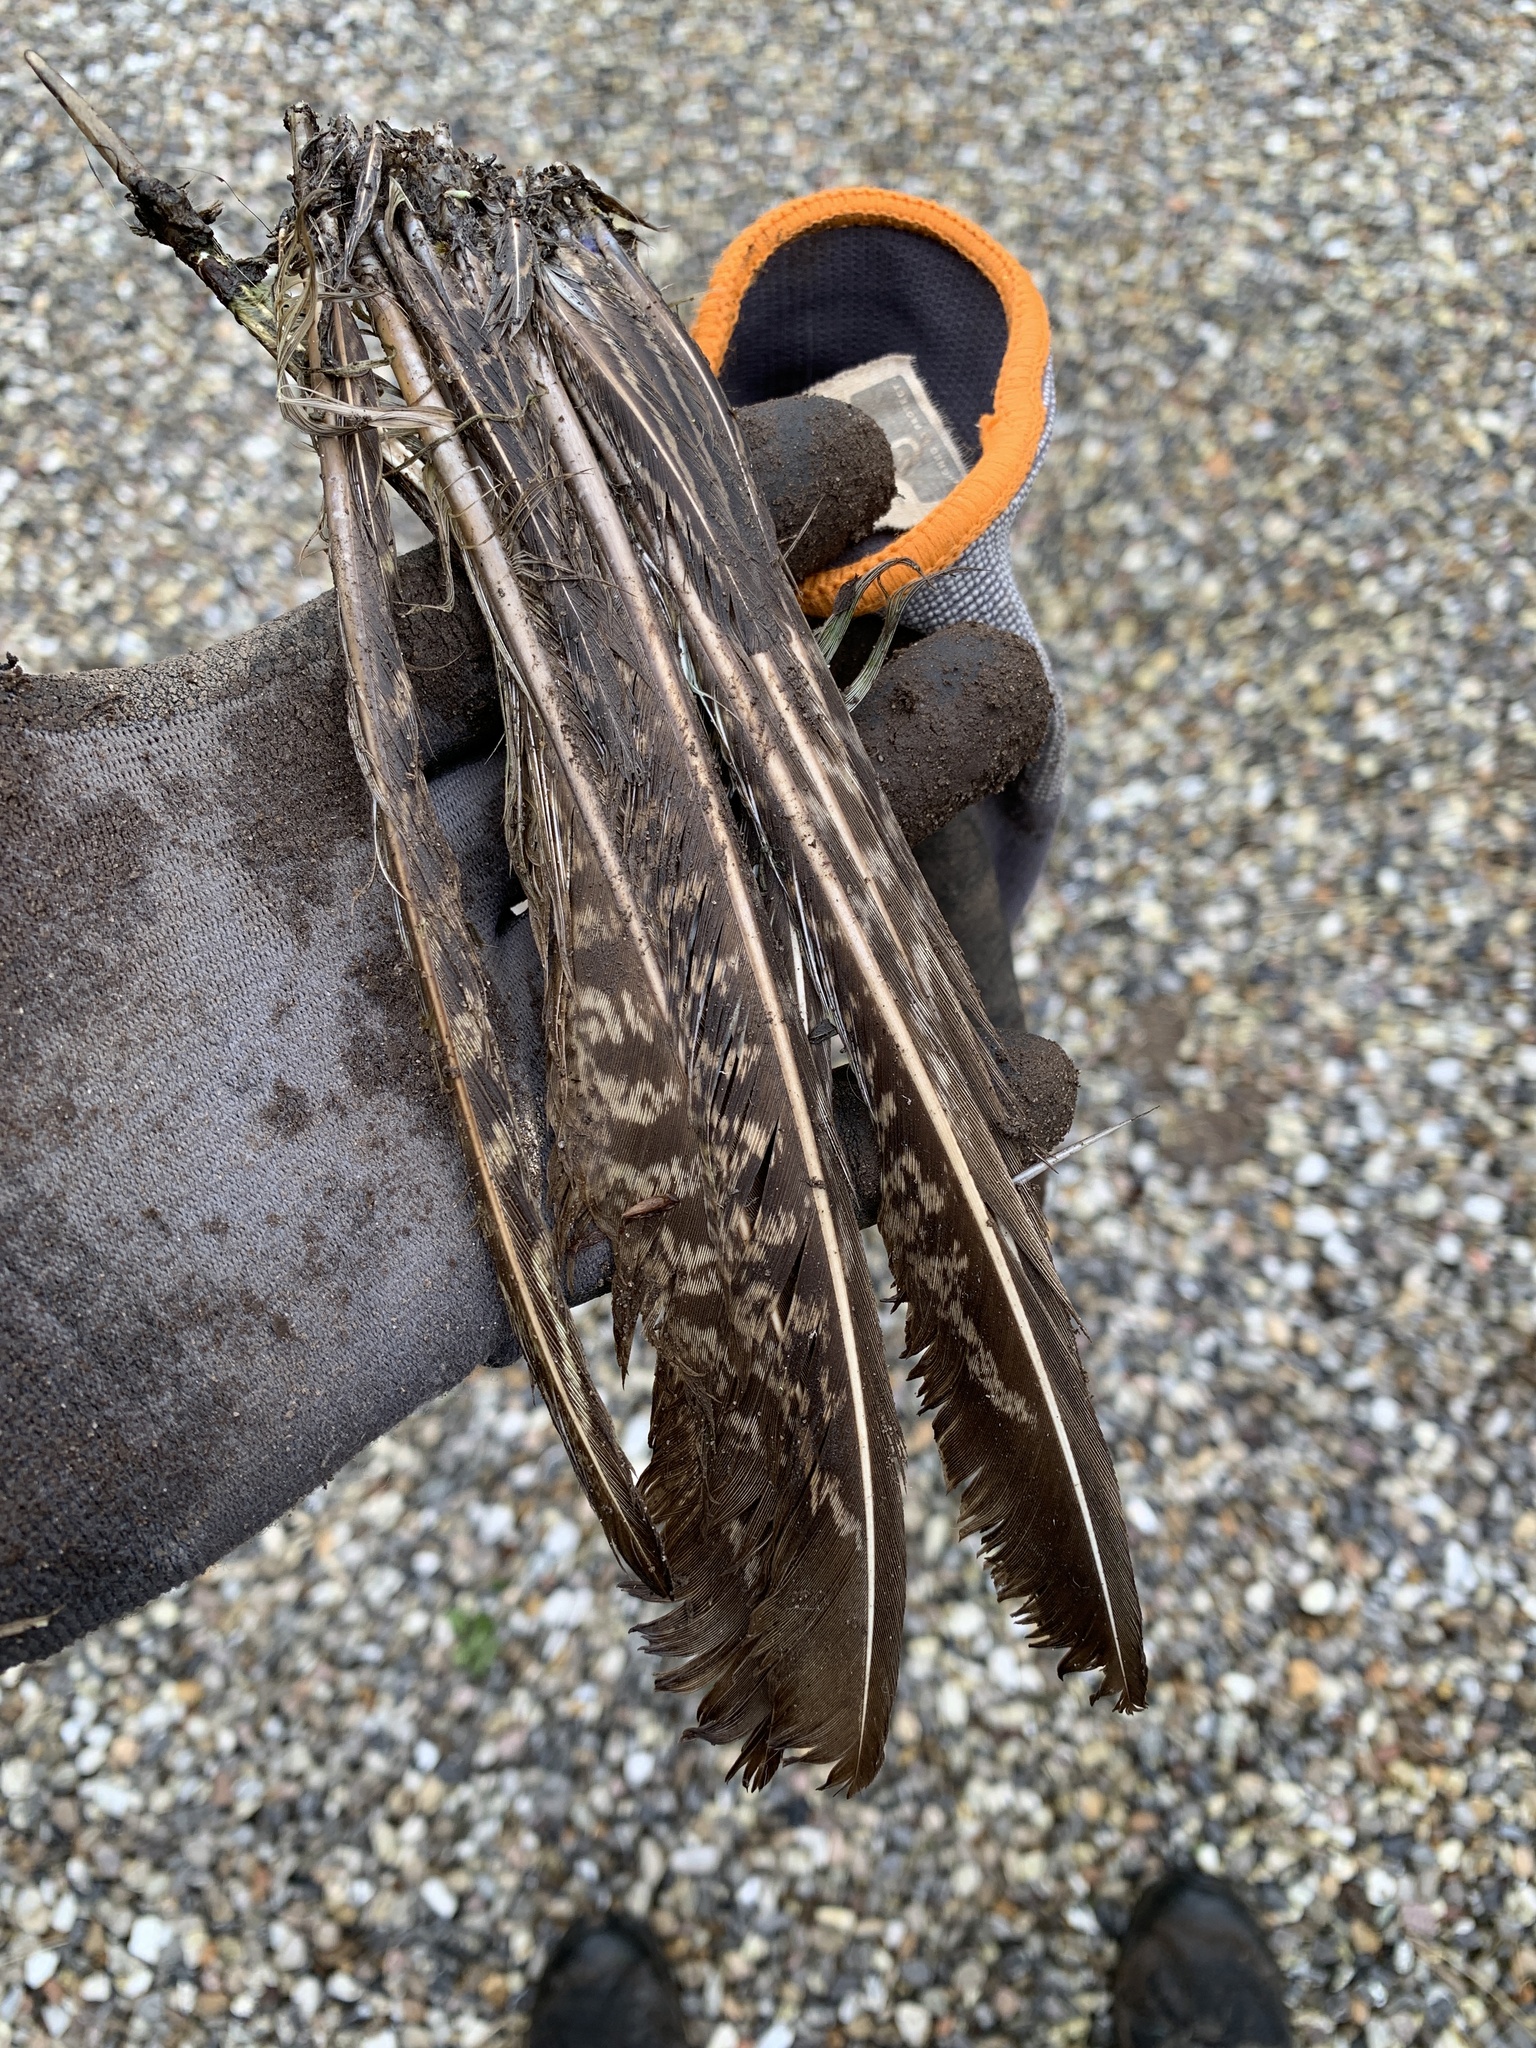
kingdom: Animalia
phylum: Chordata
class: Aves
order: Galliformes
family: Phasianidae
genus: Phasianus
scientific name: Phasianus colchicus
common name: Common pheasant
